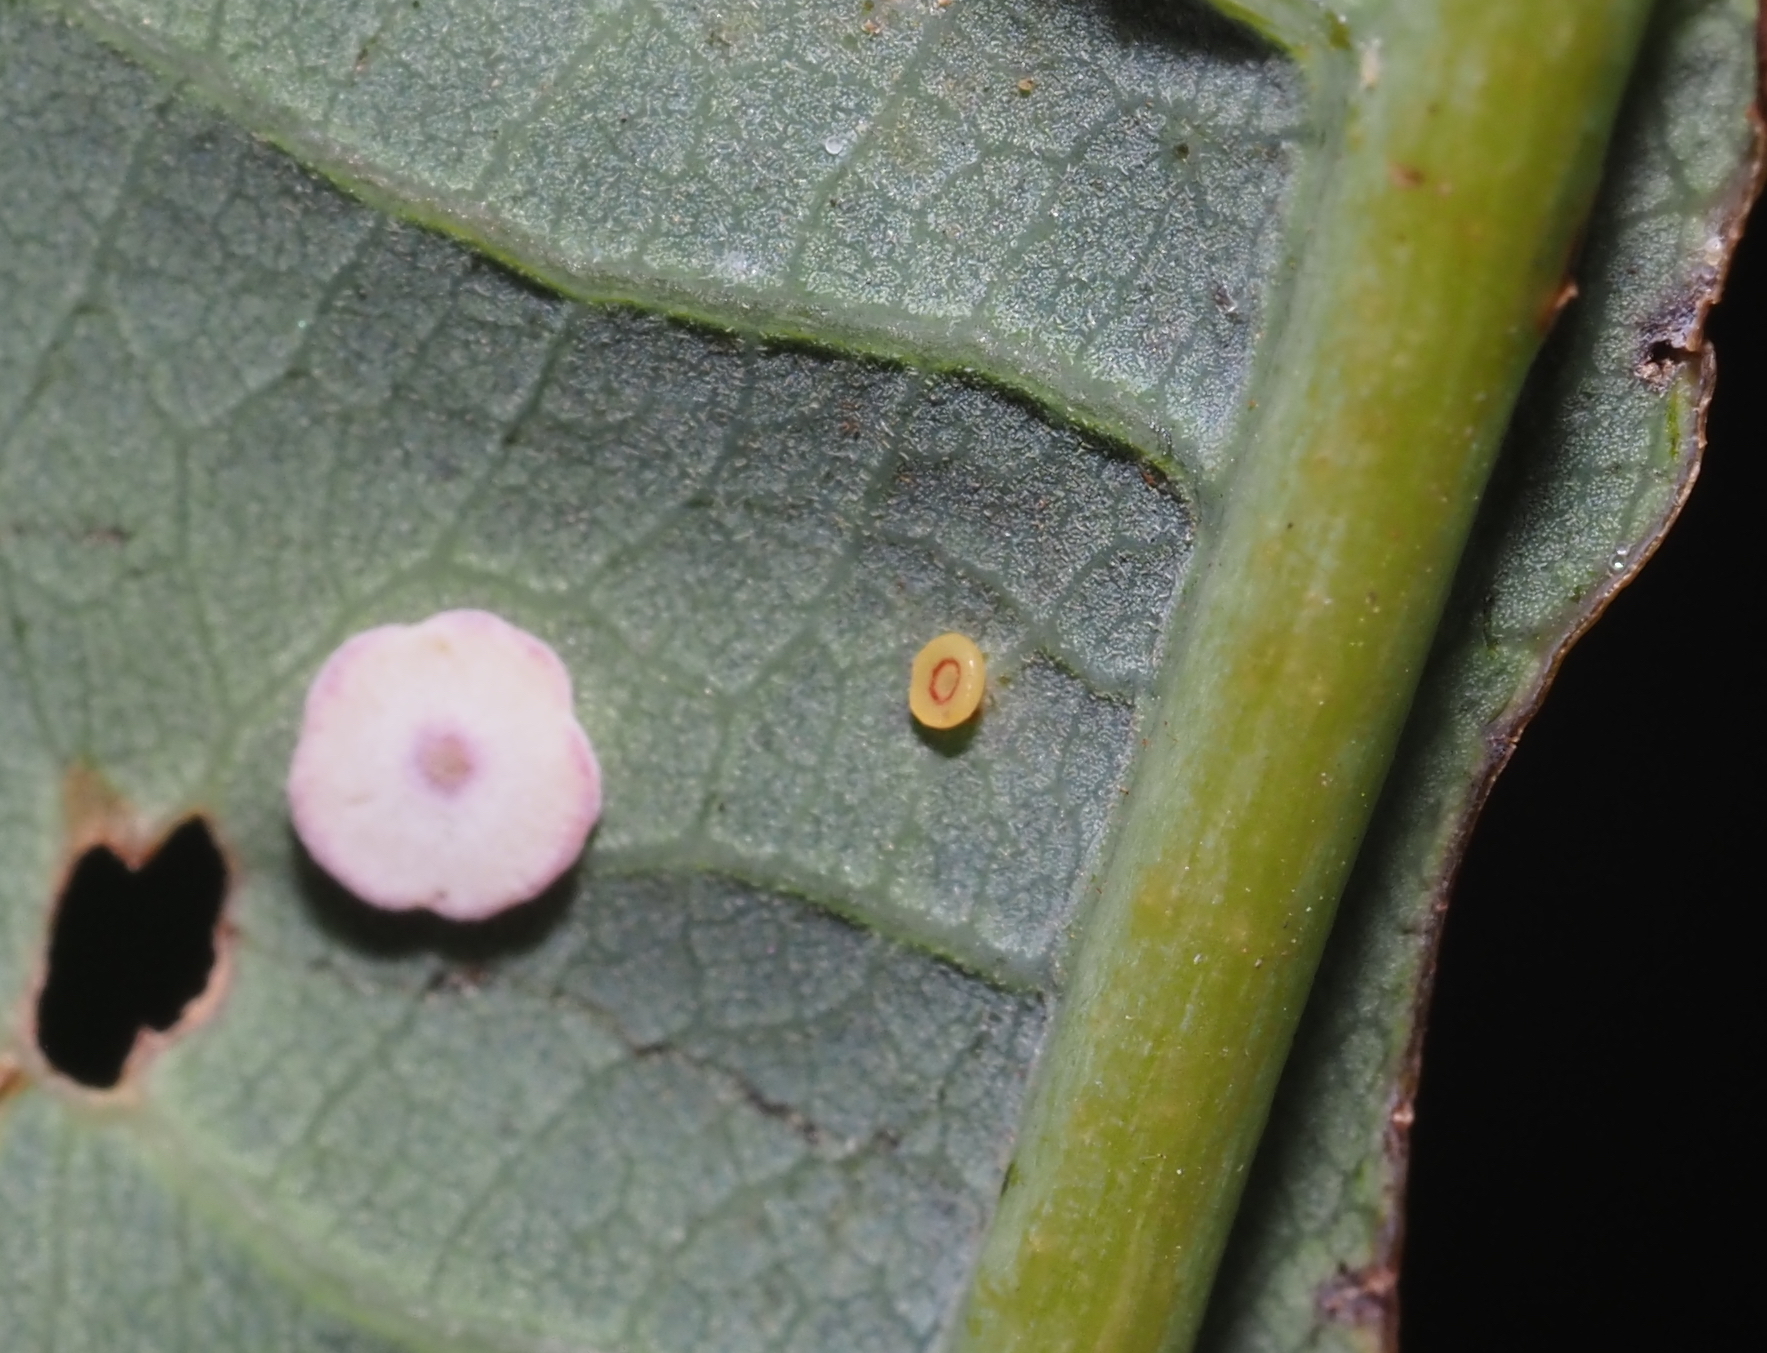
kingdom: Animalia
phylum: Arthropoda
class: Insecta
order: Hymenoptera
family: Cynipidae
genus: Phylloteras
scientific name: Phylloteras poculum
